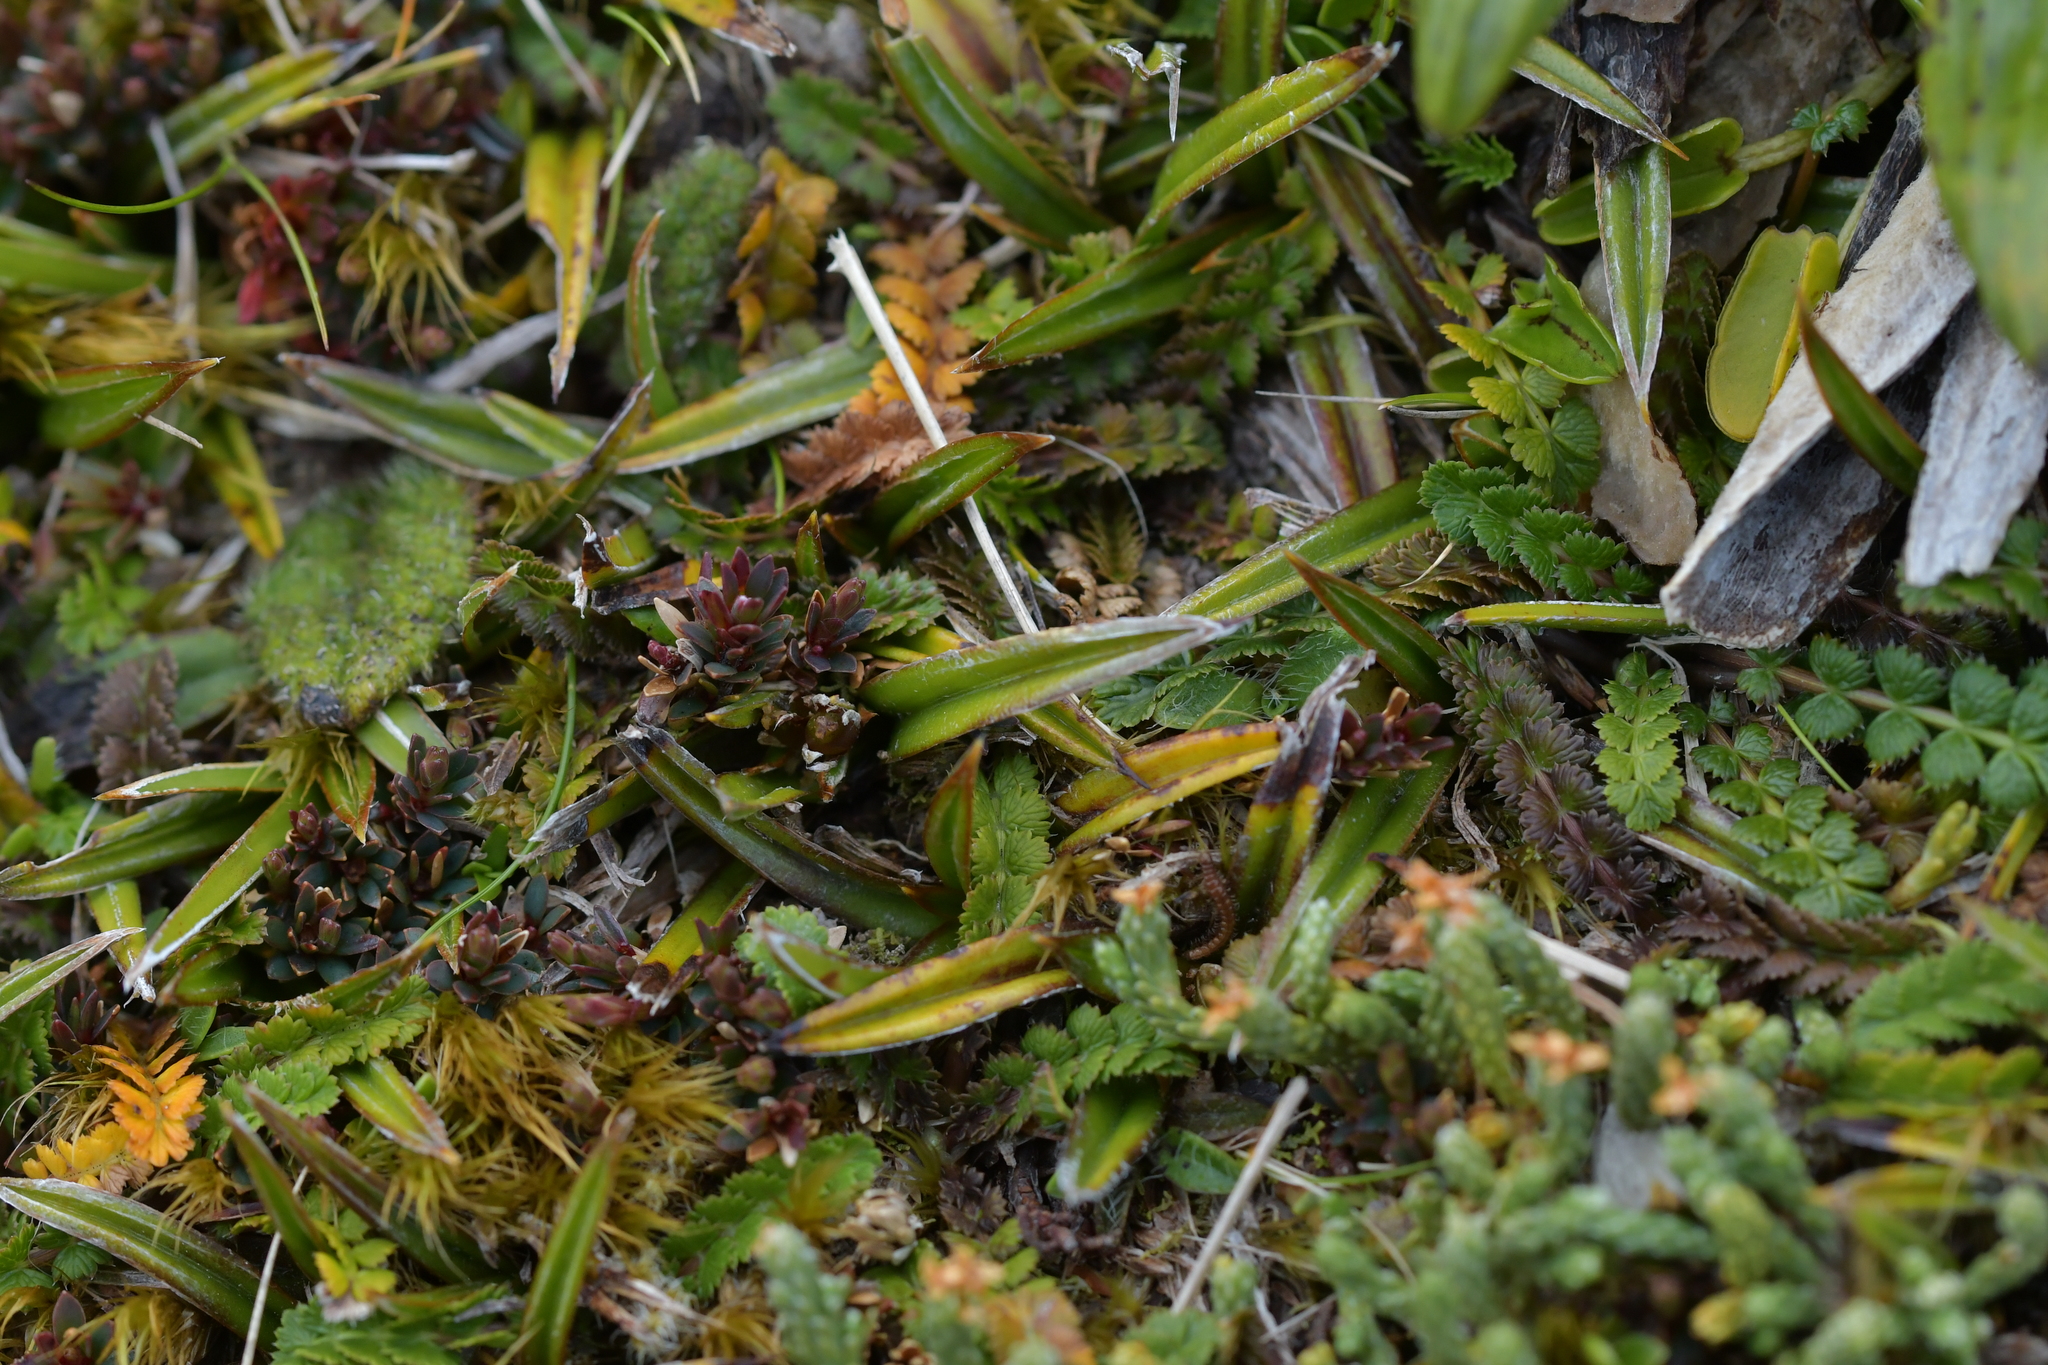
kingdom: Plantae
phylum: Tracheophyta
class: Liliopsida
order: Asparagales
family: Asteliaceae
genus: Astelia
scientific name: Astelia linearis
